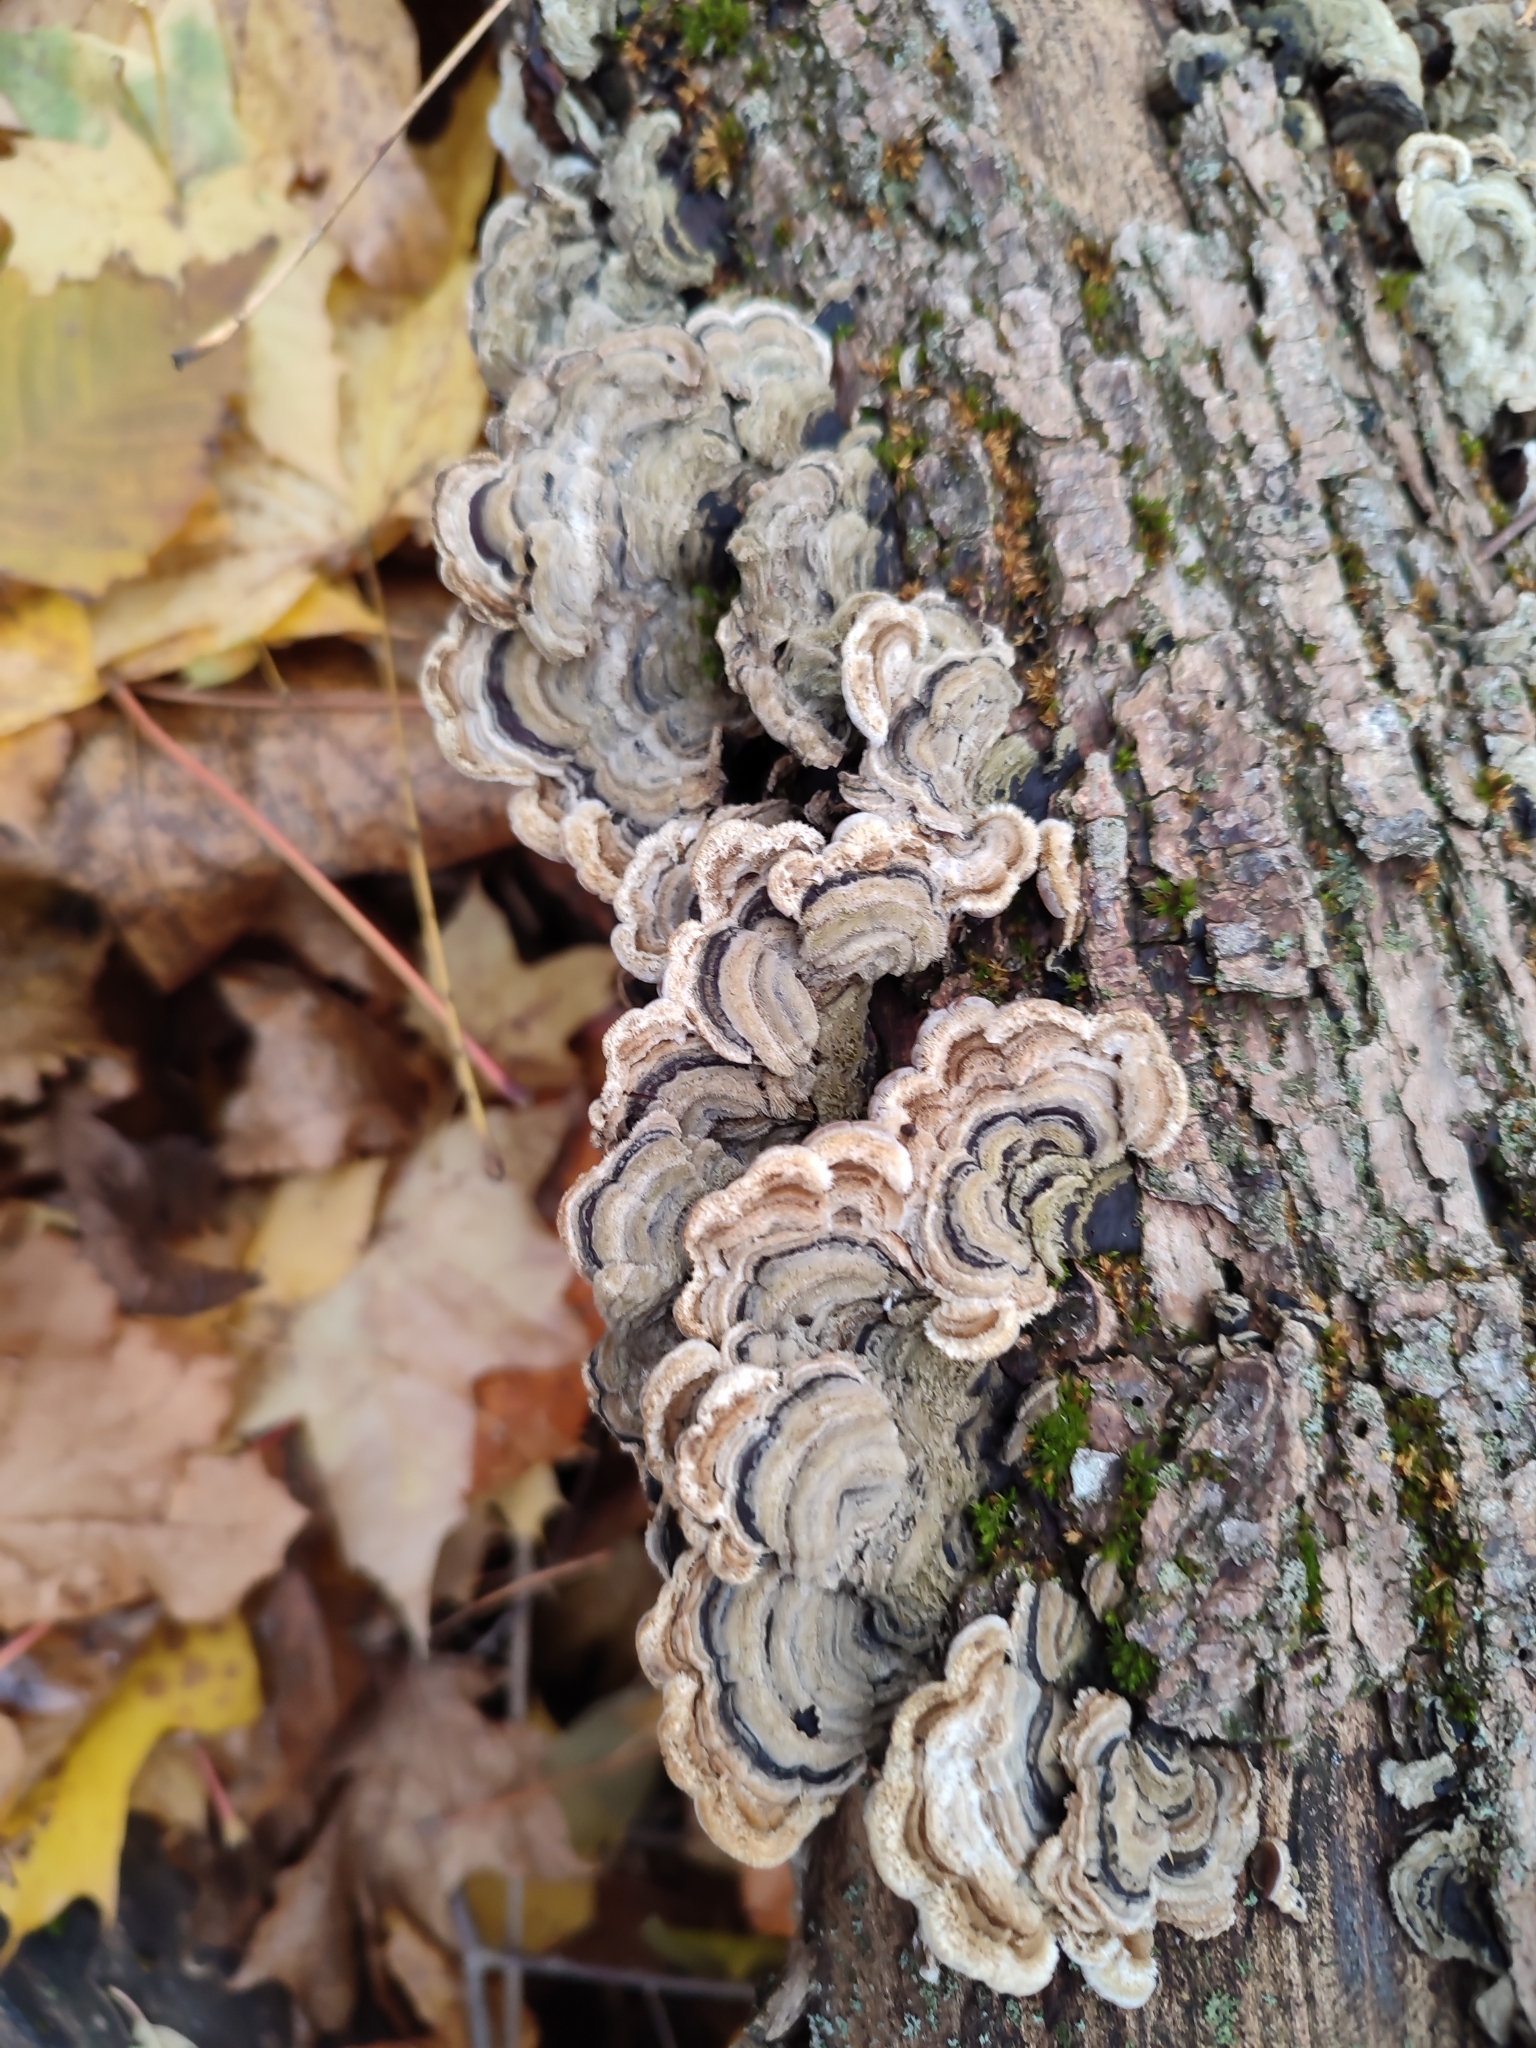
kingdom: Fungi
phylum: Basidiomycota
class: Agaricomycetes
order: Auriculariales
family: Auriculariaceae
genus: Auricularia
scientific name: Auricularia mesenterica
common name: Tripe fungus
